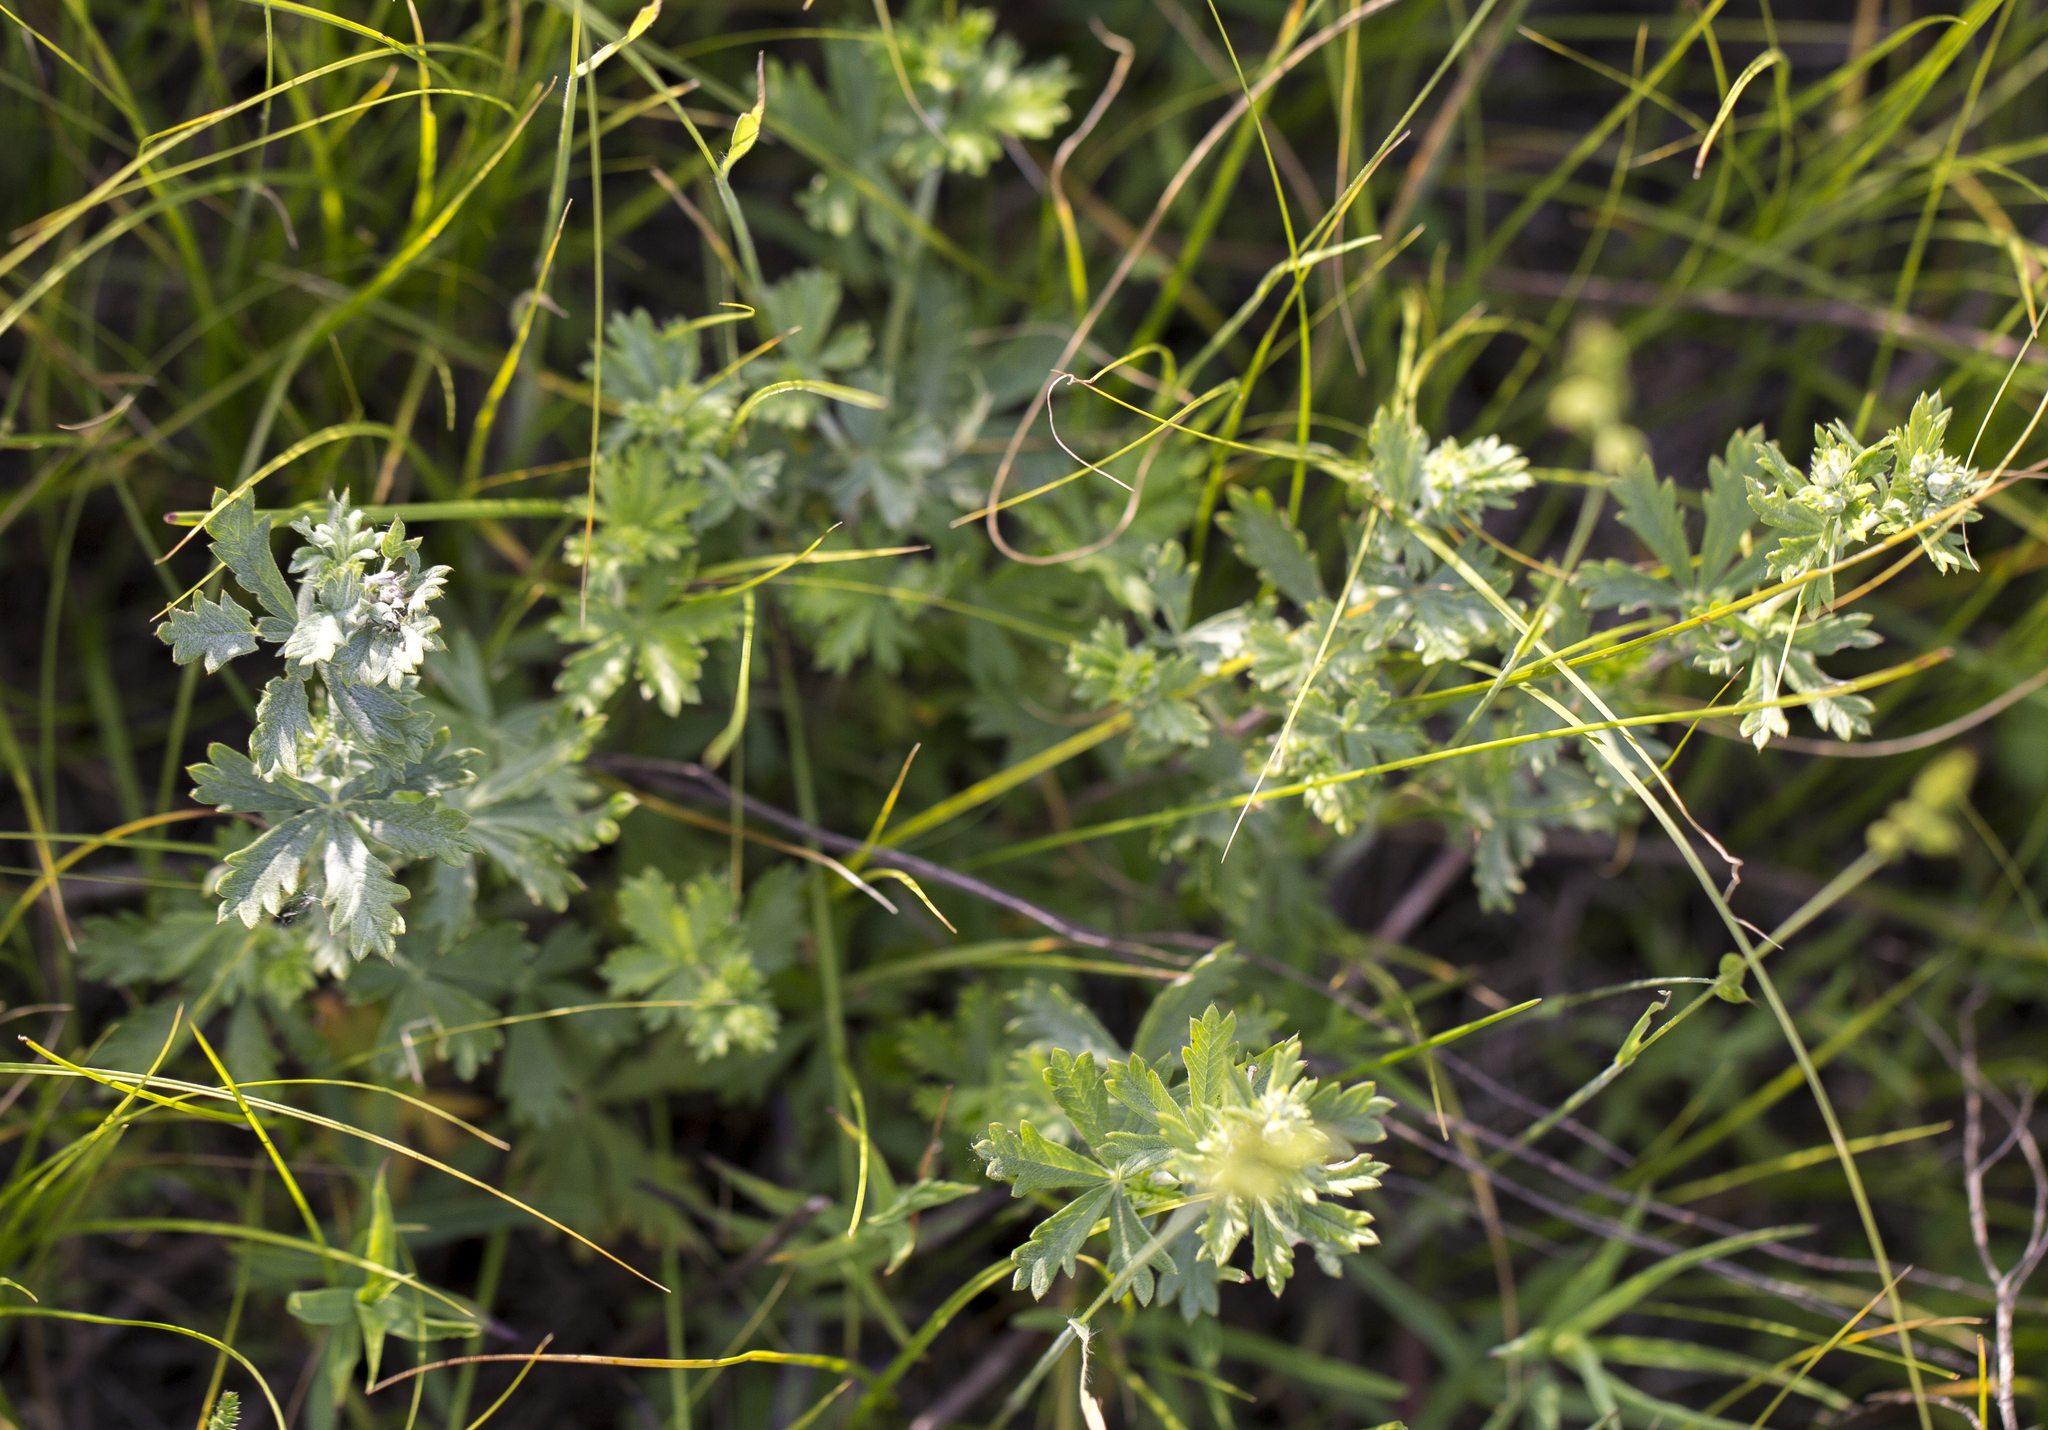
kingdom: Plantae
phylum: Tracheophyta
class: Magnoliopsida
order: Rosales
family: Rosaceae
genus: Potentilla
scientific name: Potentilla argentea
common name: Hoary cinquefoil
